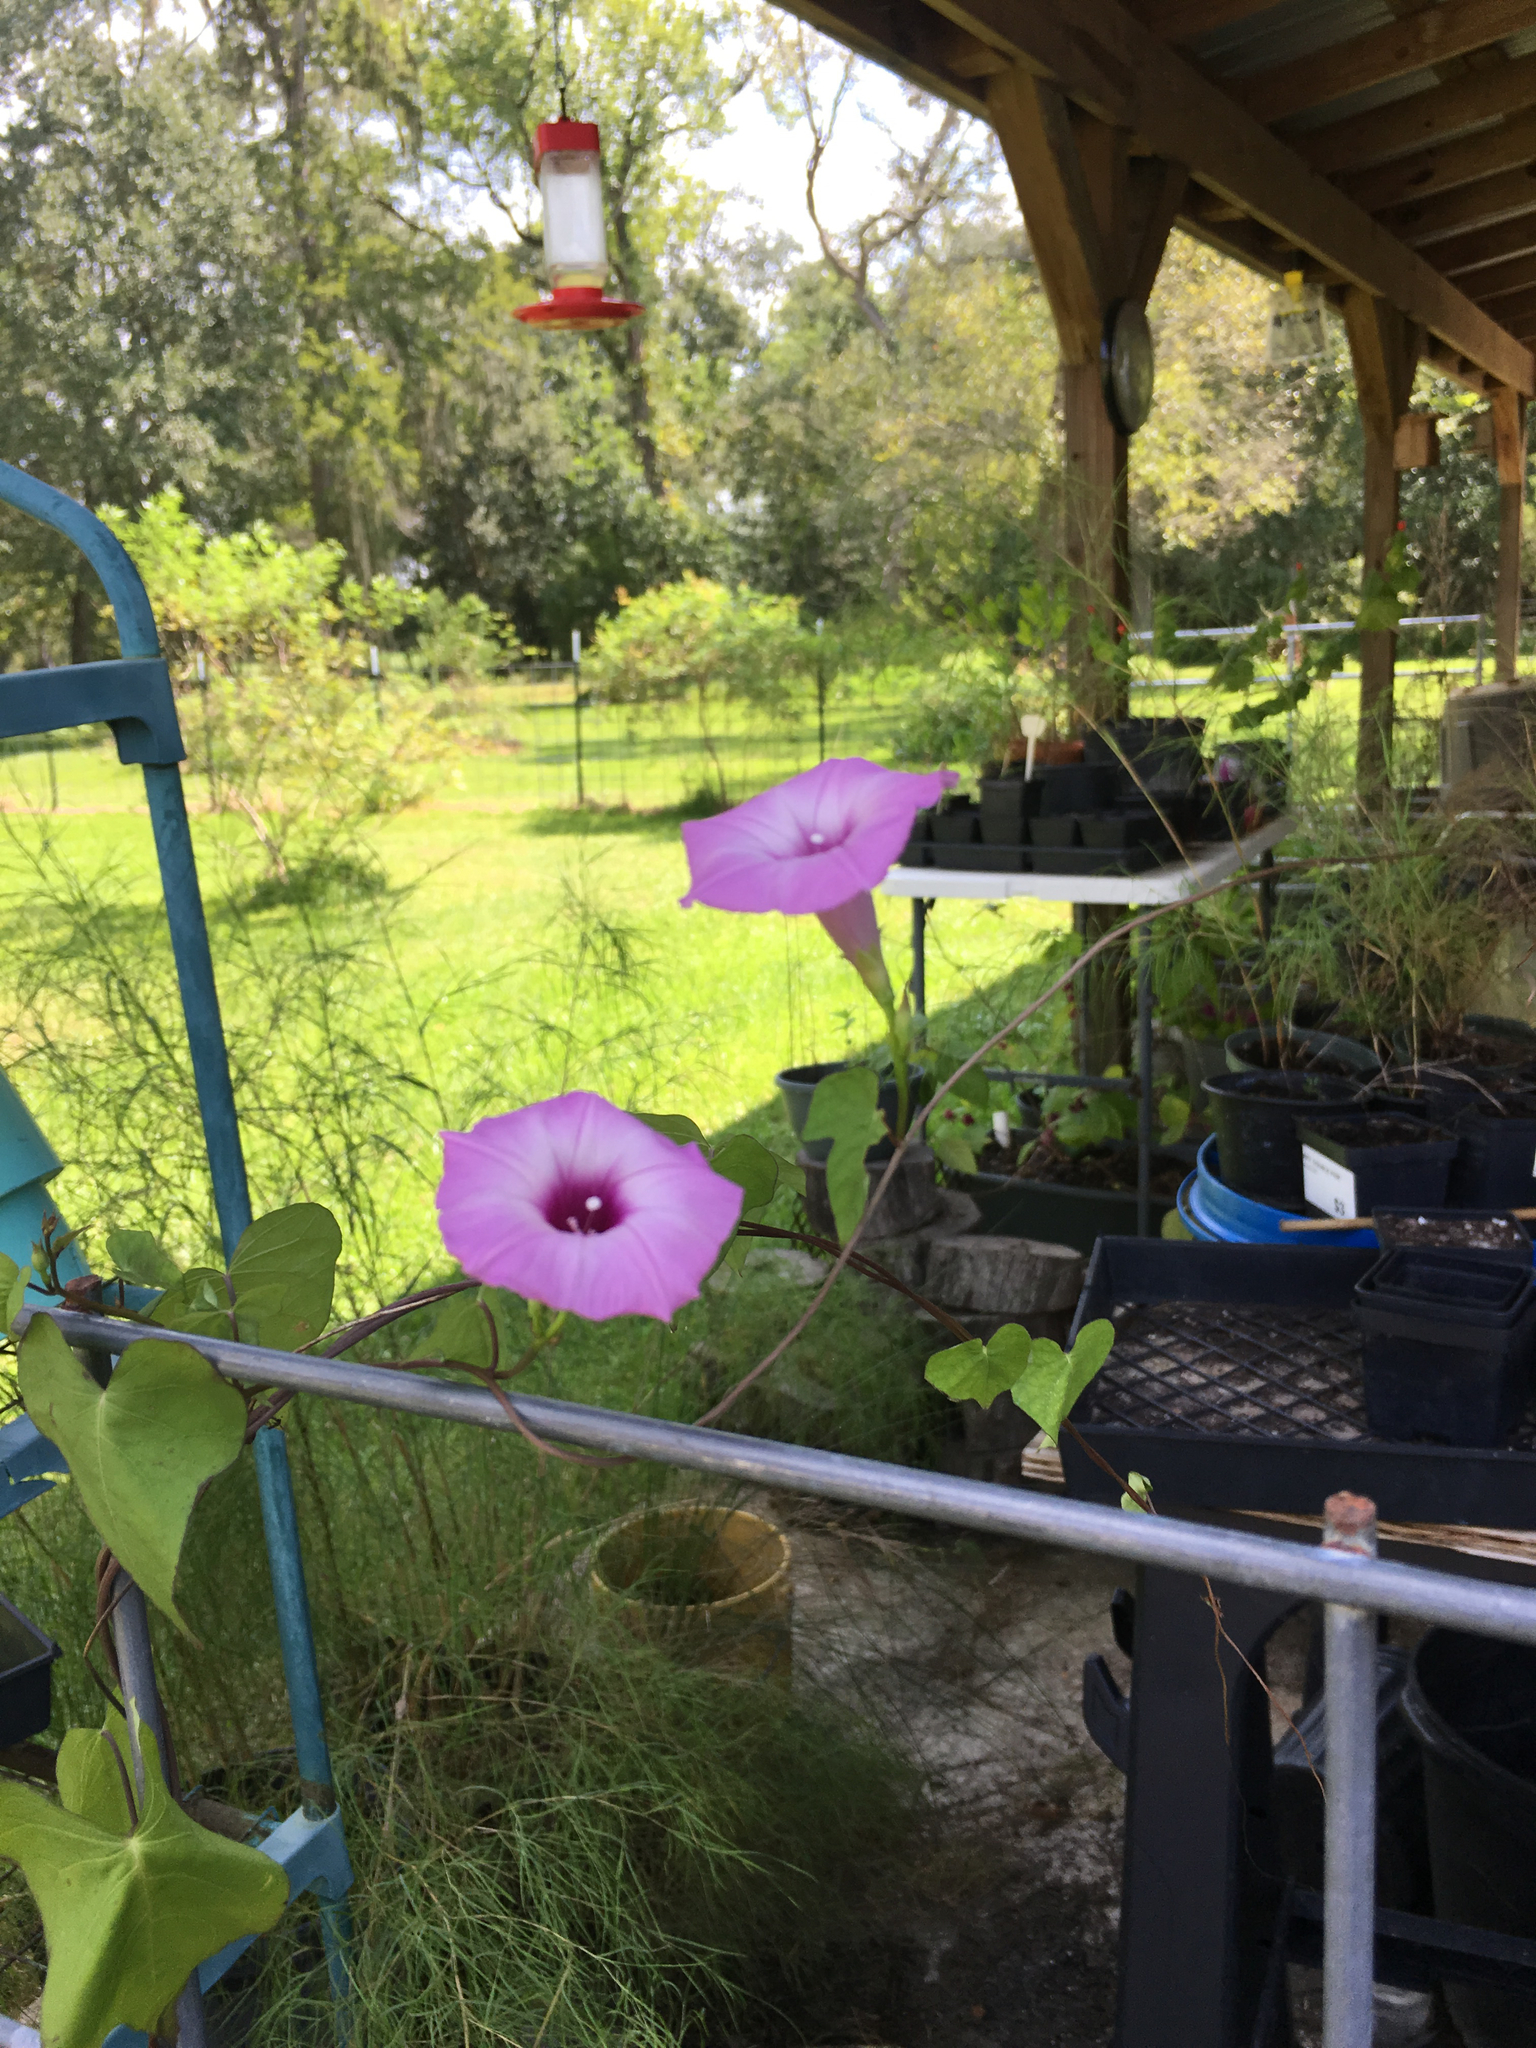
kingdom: Plantae
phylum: Tracheophyta
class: Magnoliopsida
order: Solanales
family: Convolvulaceae
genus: Ipomoea
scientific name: Ipomoea cordatotriloba
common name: Cotton morning glory
